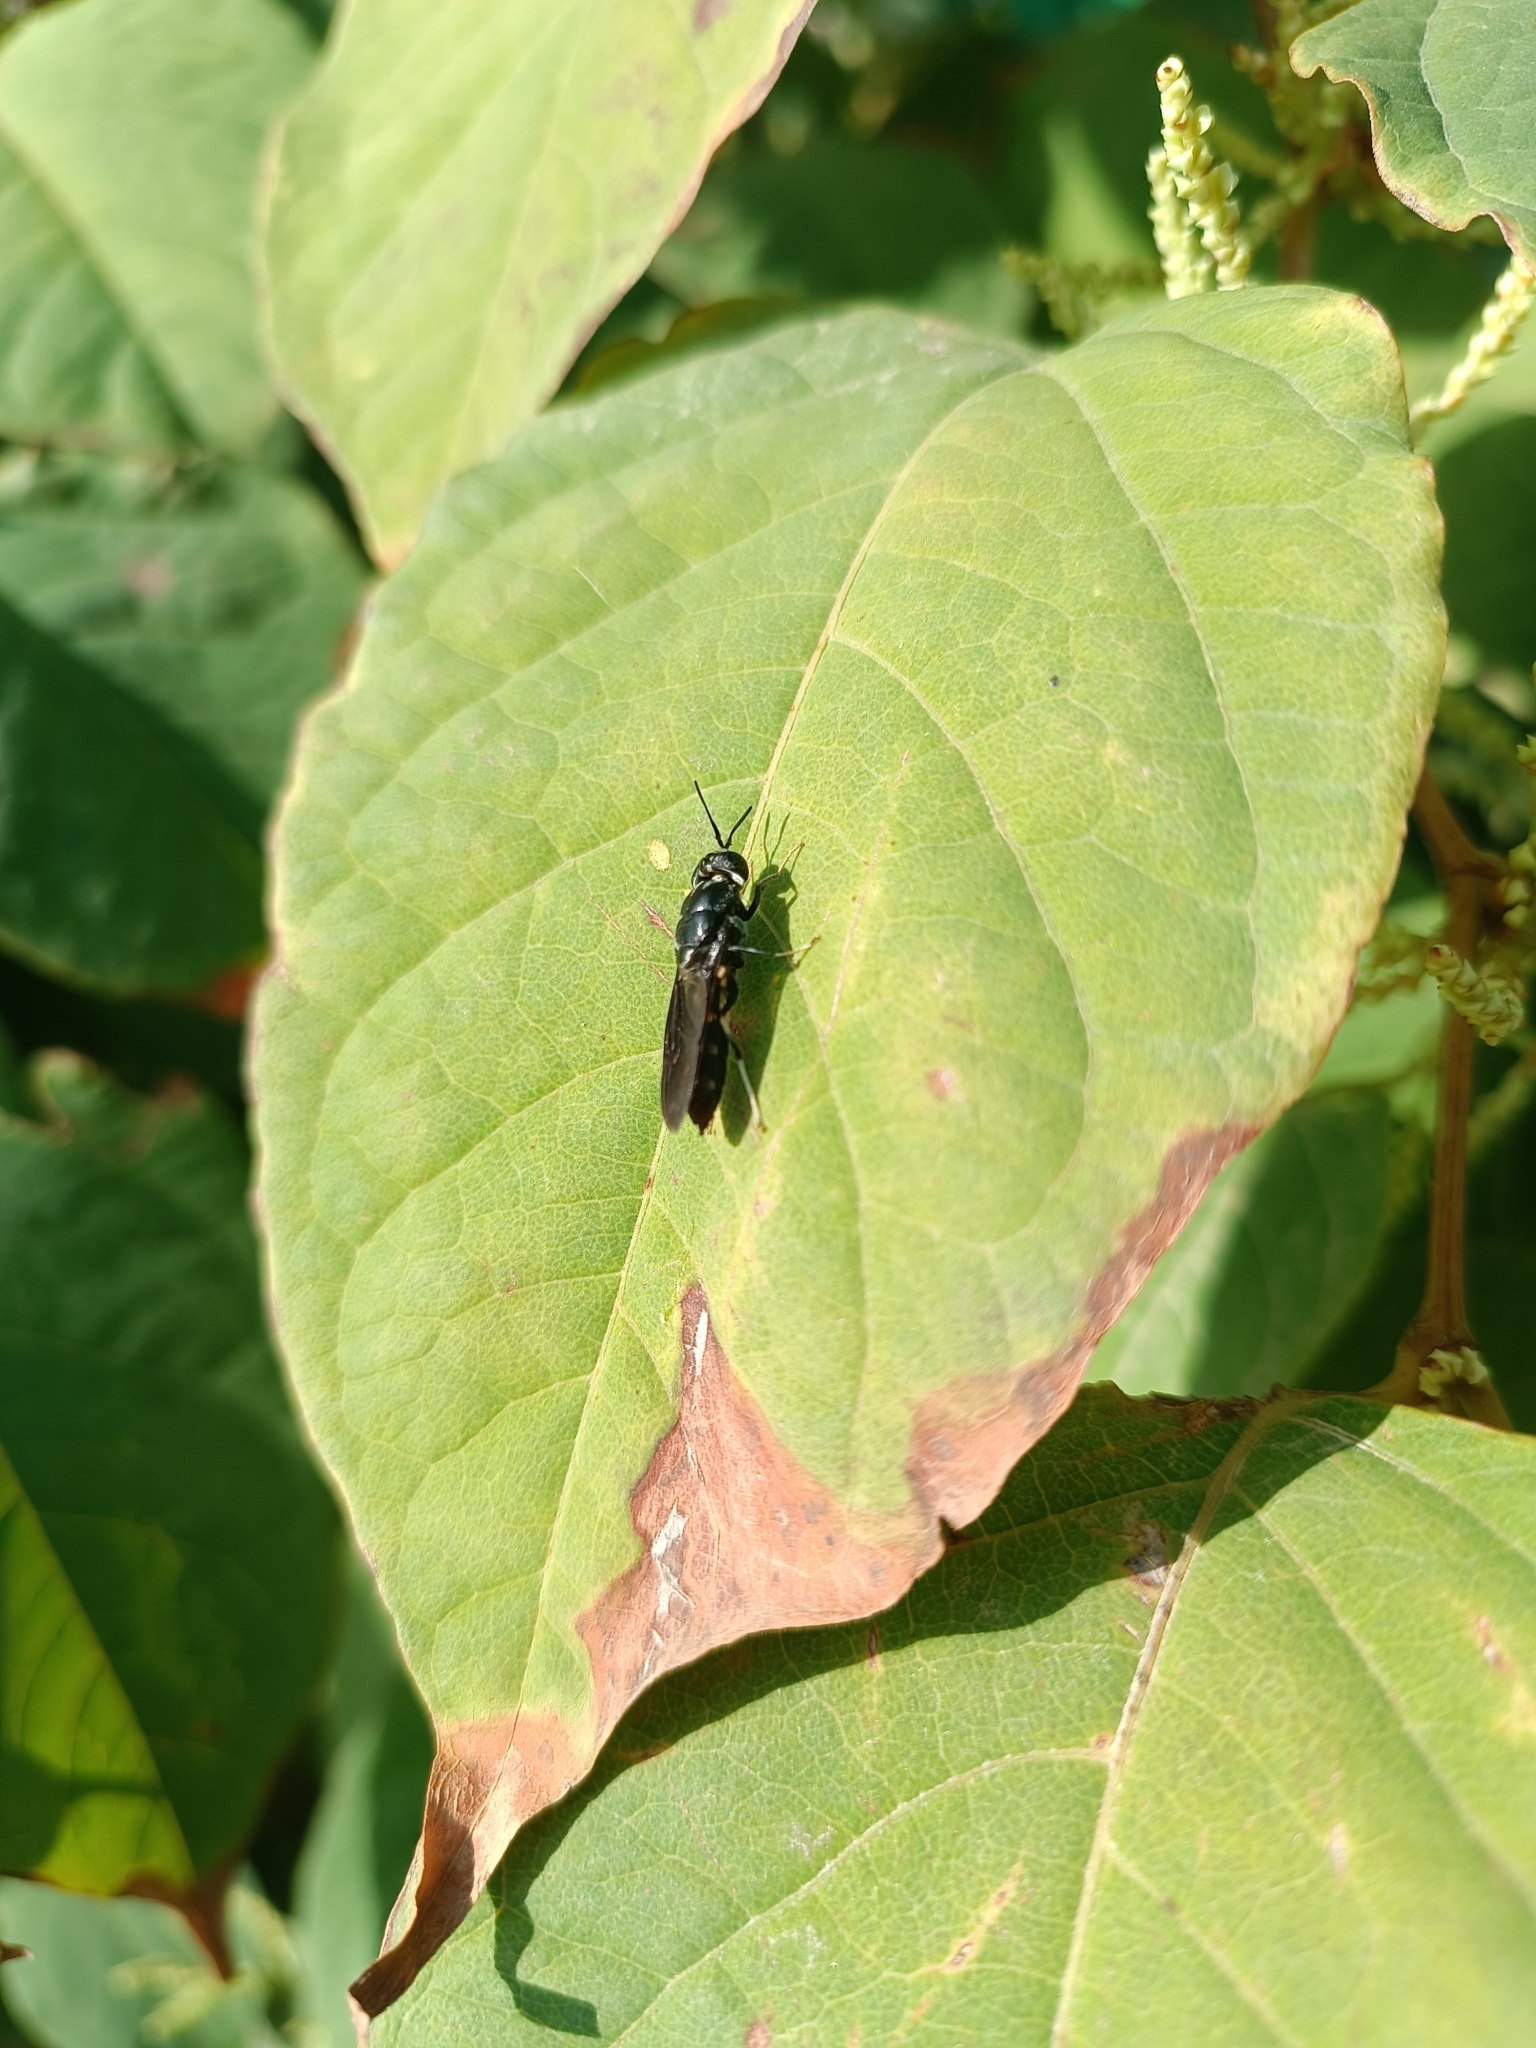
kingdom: Animalia
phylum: Arthropoda
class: Insecta
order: Diptera
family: Stratiomyidae
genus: Hermetia
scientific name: Hermetia illucens
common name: Black soldier fly
